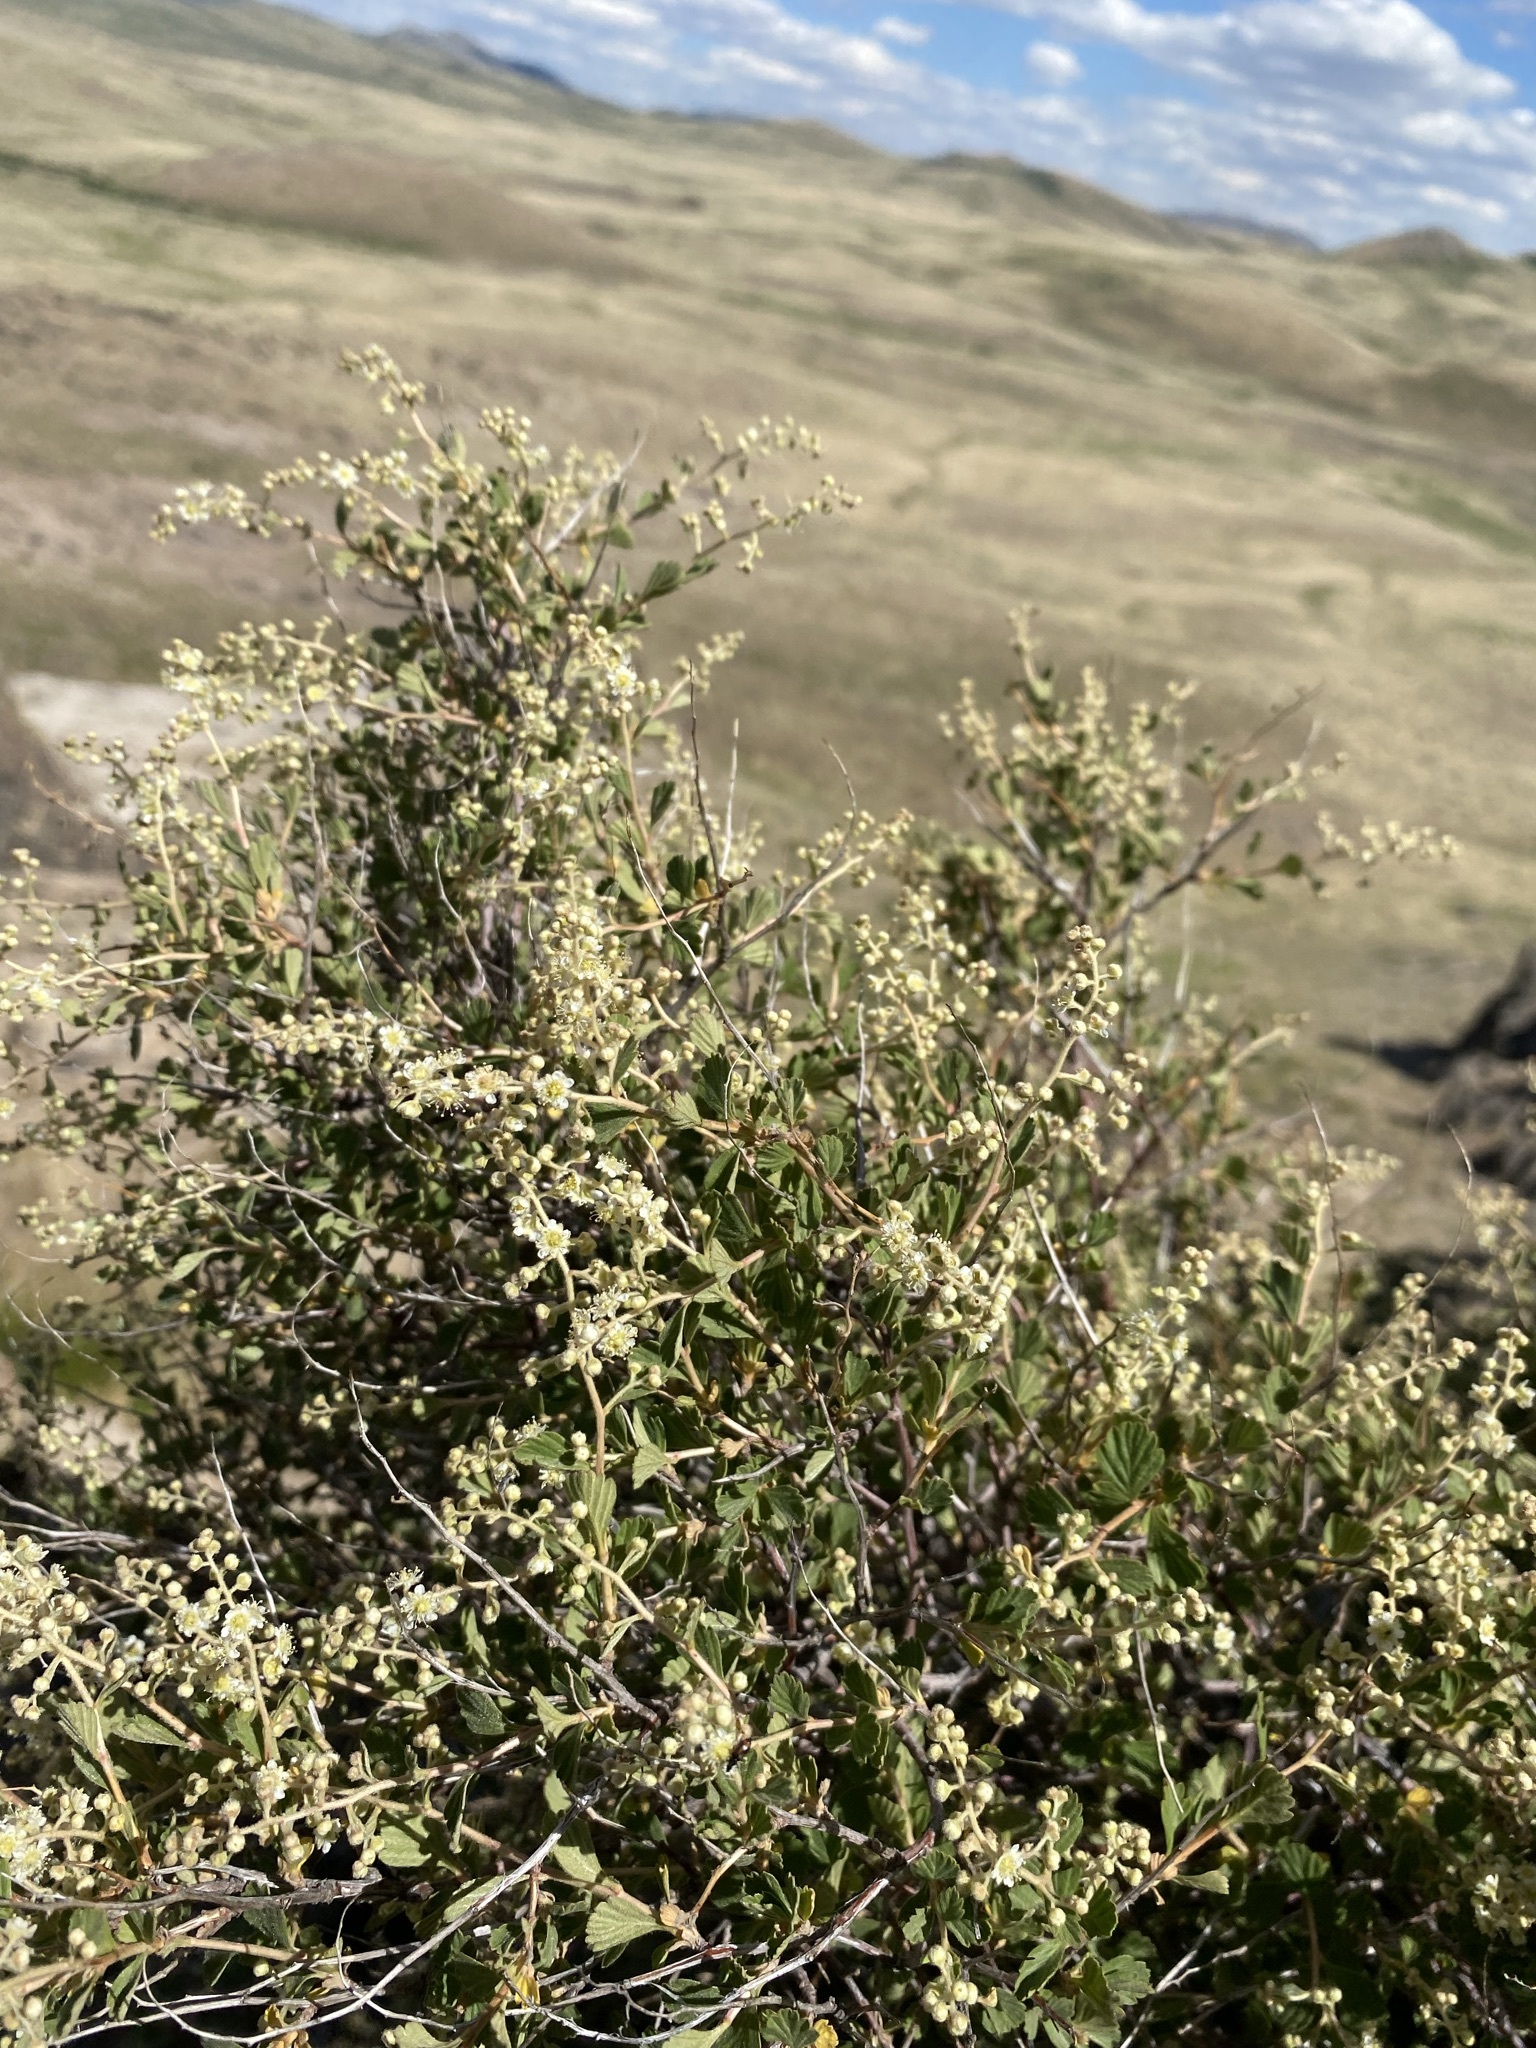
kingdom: Plantae
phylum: Tracheophyta
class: Magnoliopsida
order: Rosales
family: Rosaceae
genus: Holodiscus
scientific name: Holodiscus discolor
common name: Oceanspray
